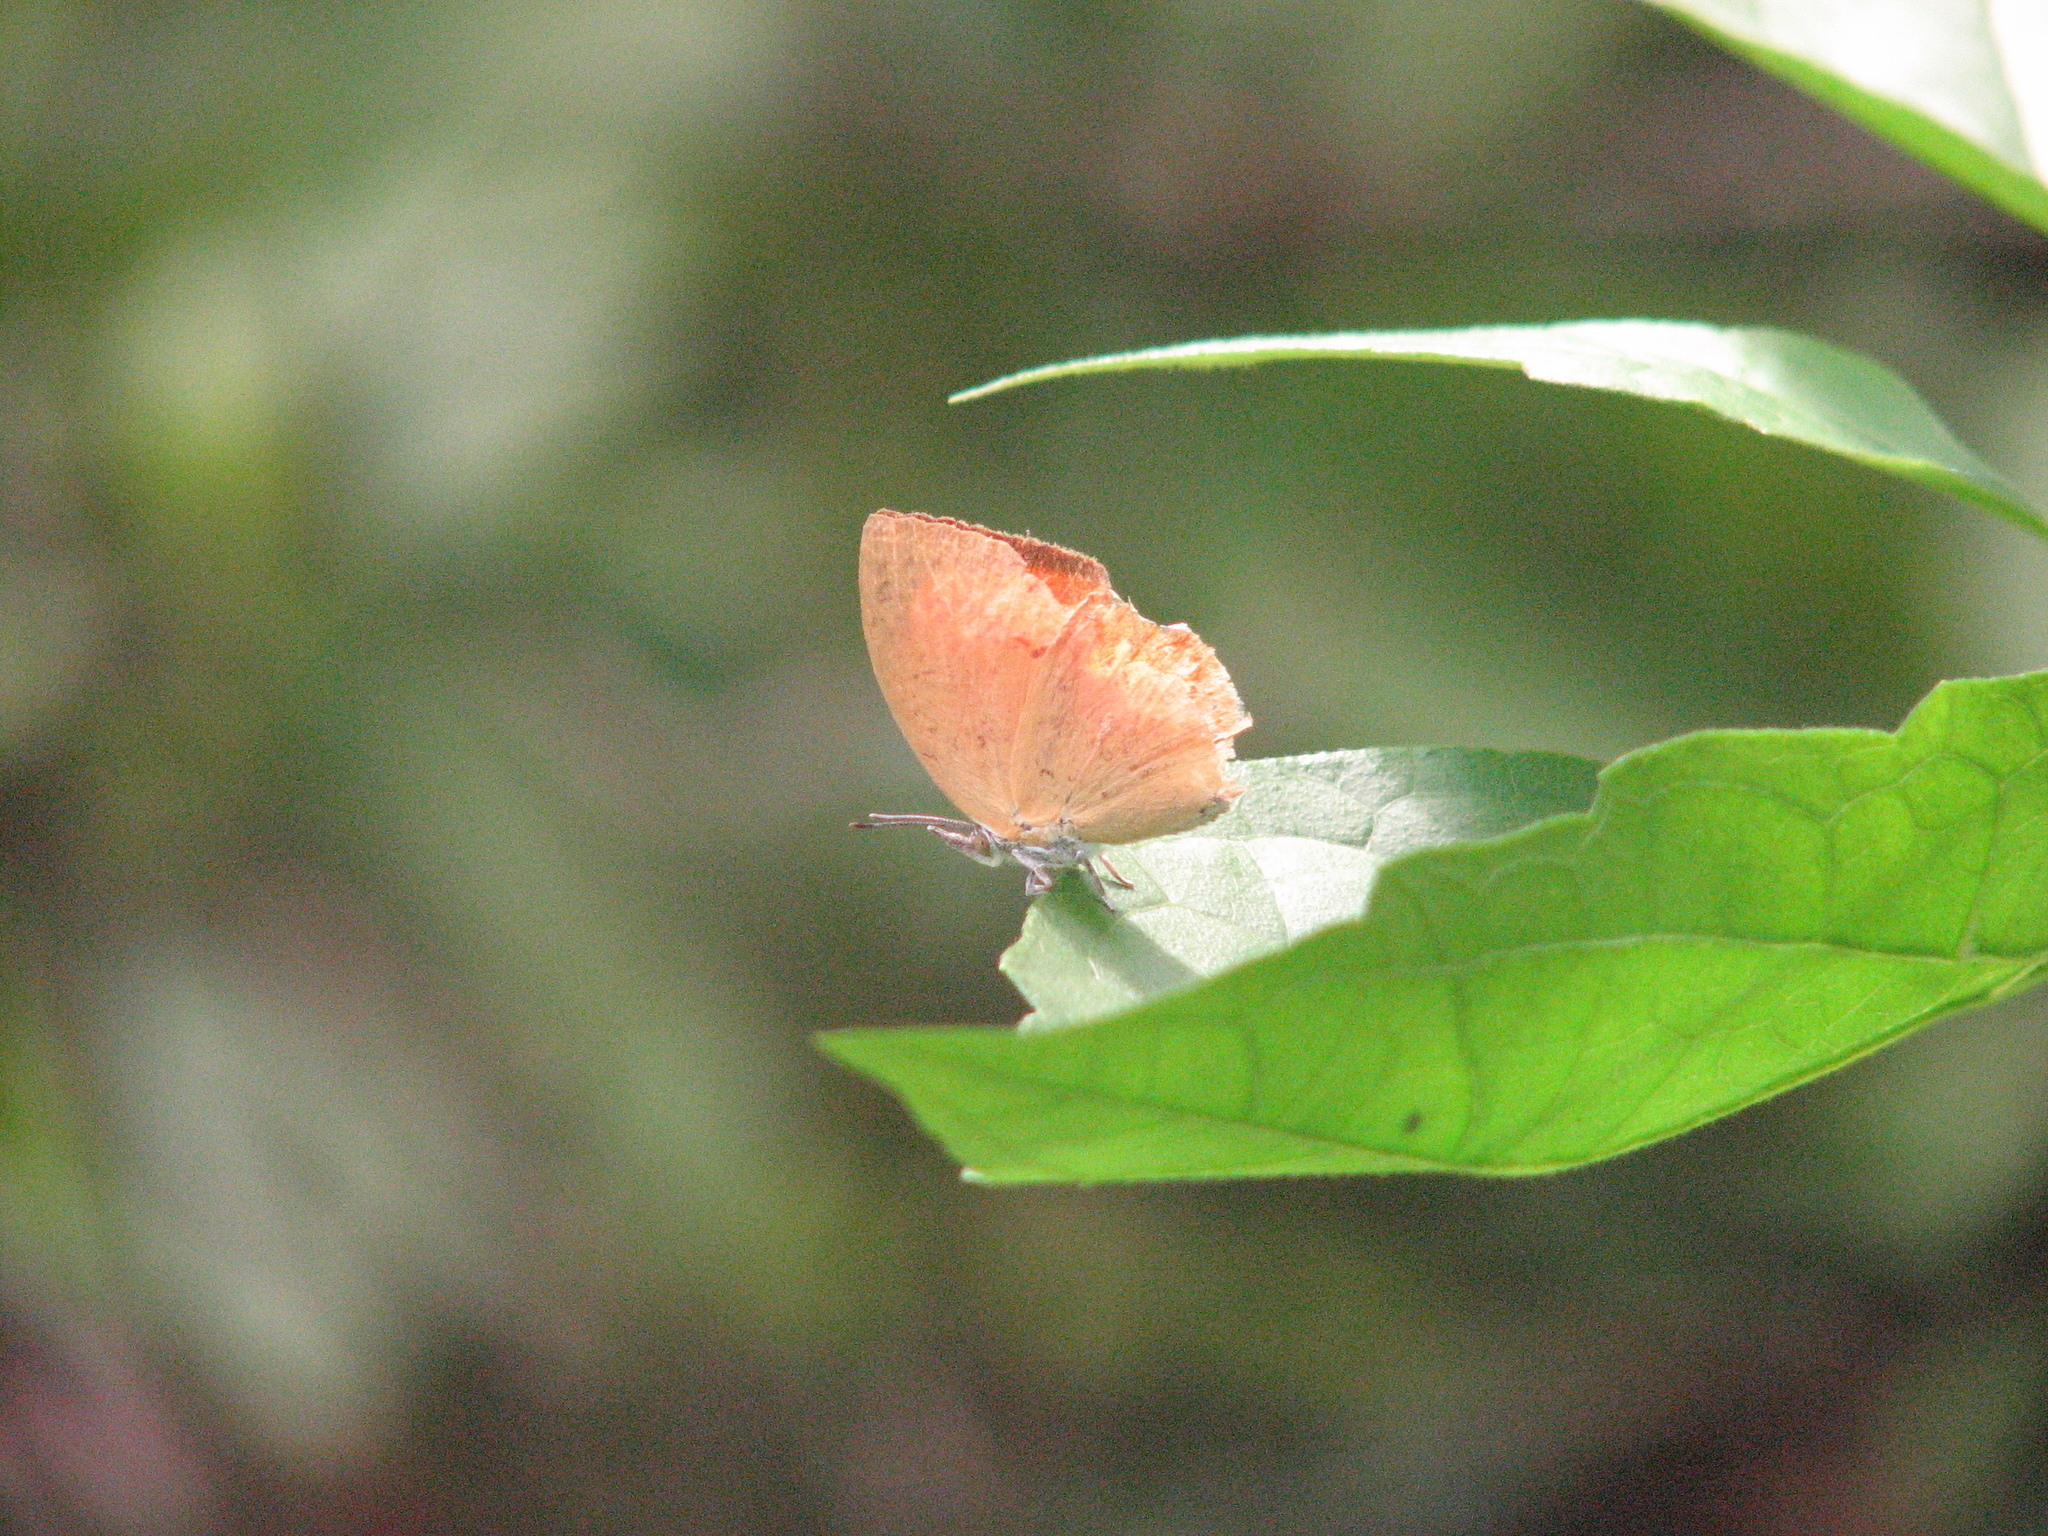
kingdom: Animalia
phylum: Arthropoda
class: Insecta
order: Lepidoptera
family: Lycaenidae
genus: Loxura
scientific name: Loxura atymnus
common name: Common yamfly
